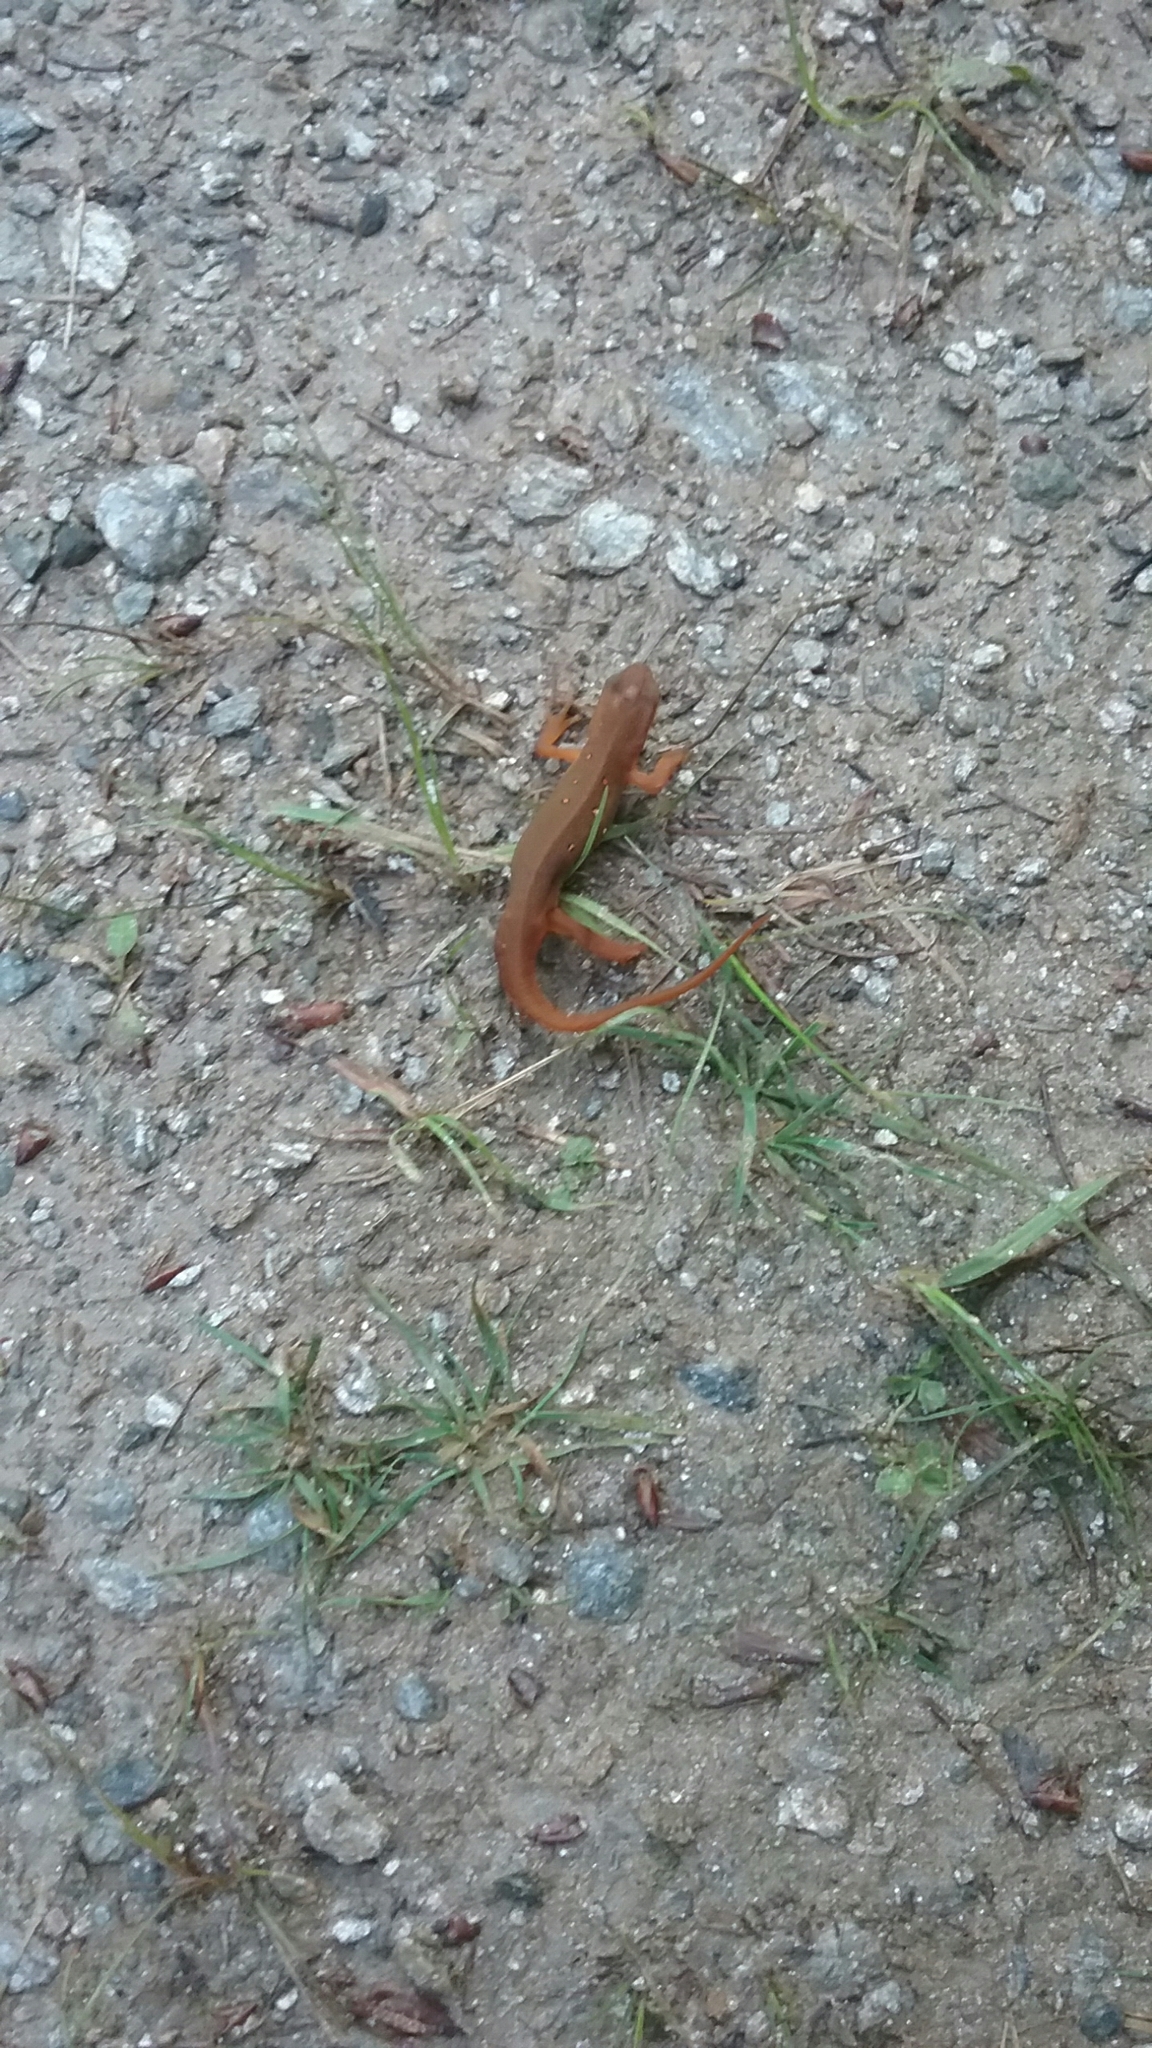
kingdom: Animalia
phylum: Chordata
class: Amphibia
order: Caudata
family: Salamandridae
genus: Notophthalmus
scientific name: Notophthalmus viridescens
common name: Eastern newt
